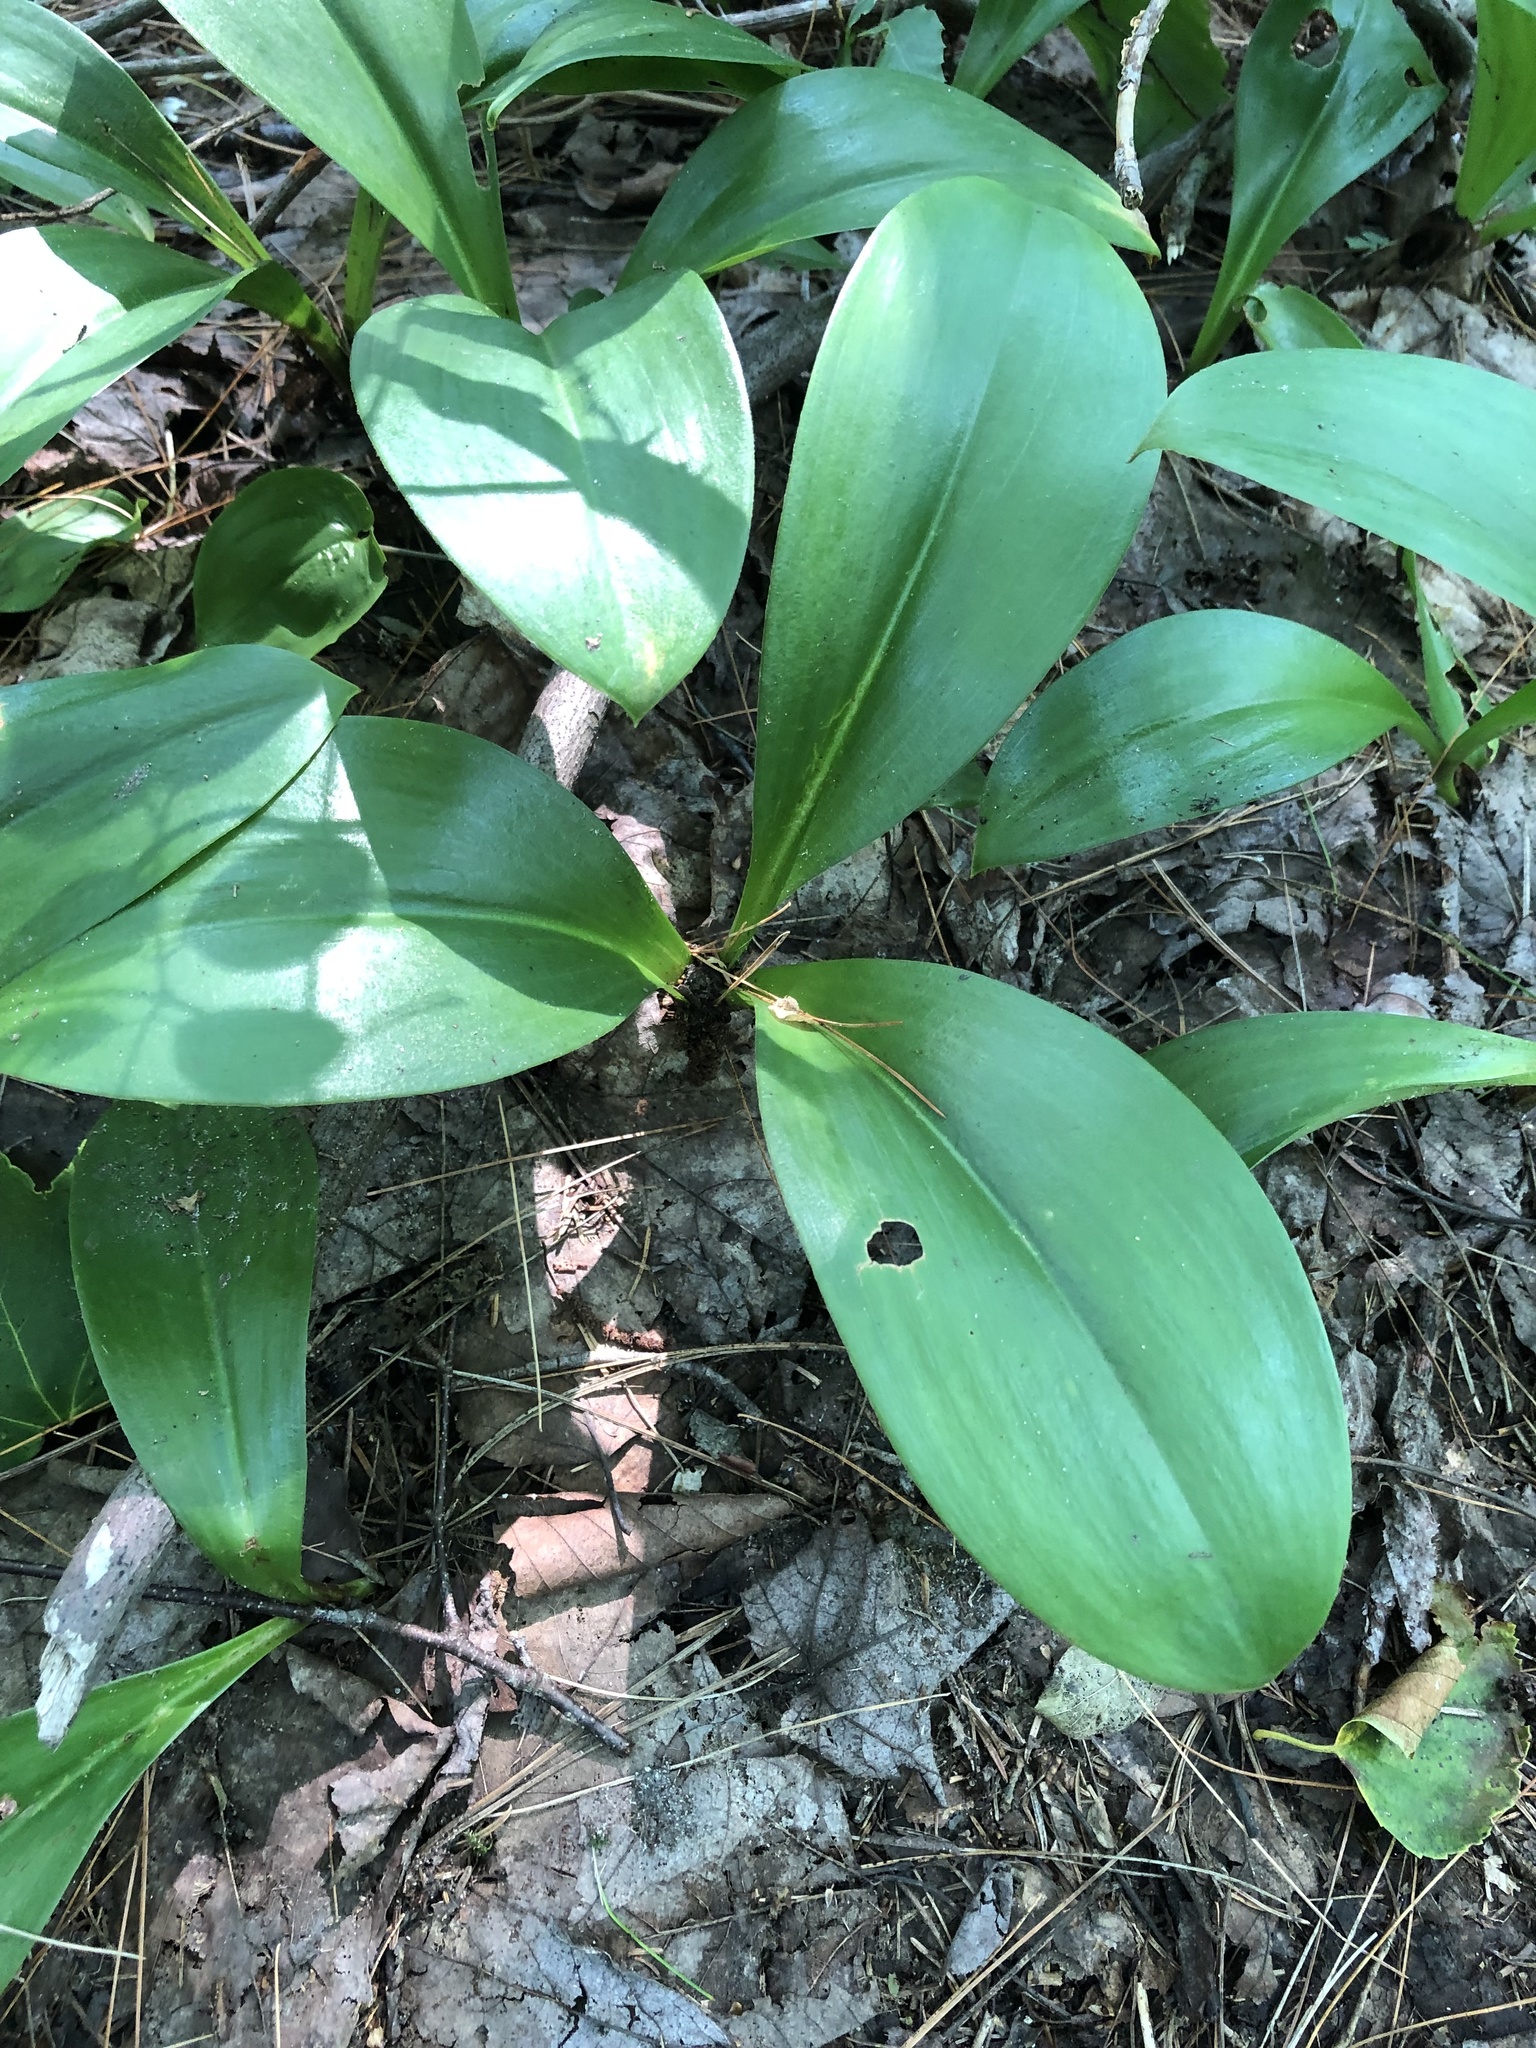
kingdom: Plantae
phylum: Tracheophyta
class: Liliopsida
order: Liliales
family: Liliaceae
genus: Clintonia
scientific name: Clintonia borealis
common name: Yellow clintonia
